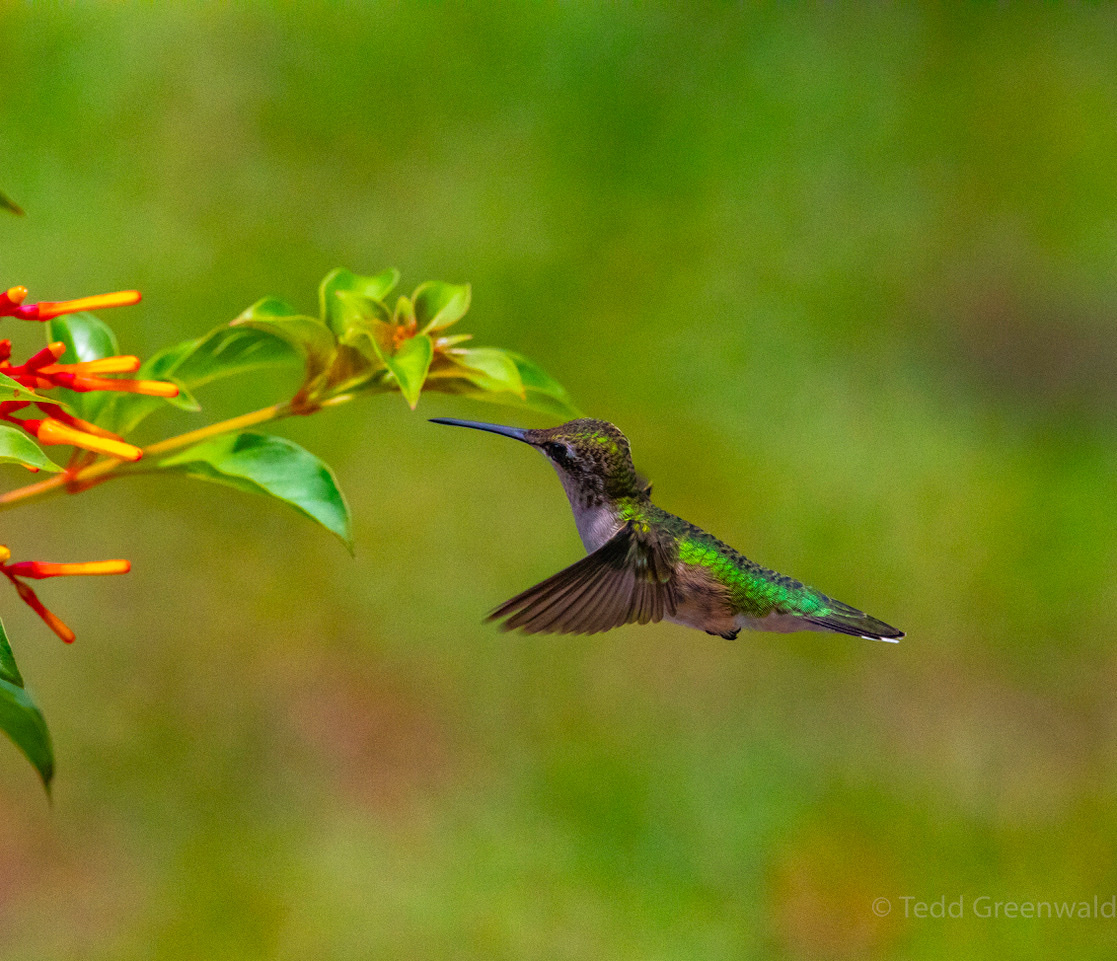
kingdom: Animalia
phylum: Chordata
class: Aves
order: Apodiformes
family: Trochilidae
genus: Archilochus
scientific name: Archilochus colubris
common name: Ruby-throated hummingbird
